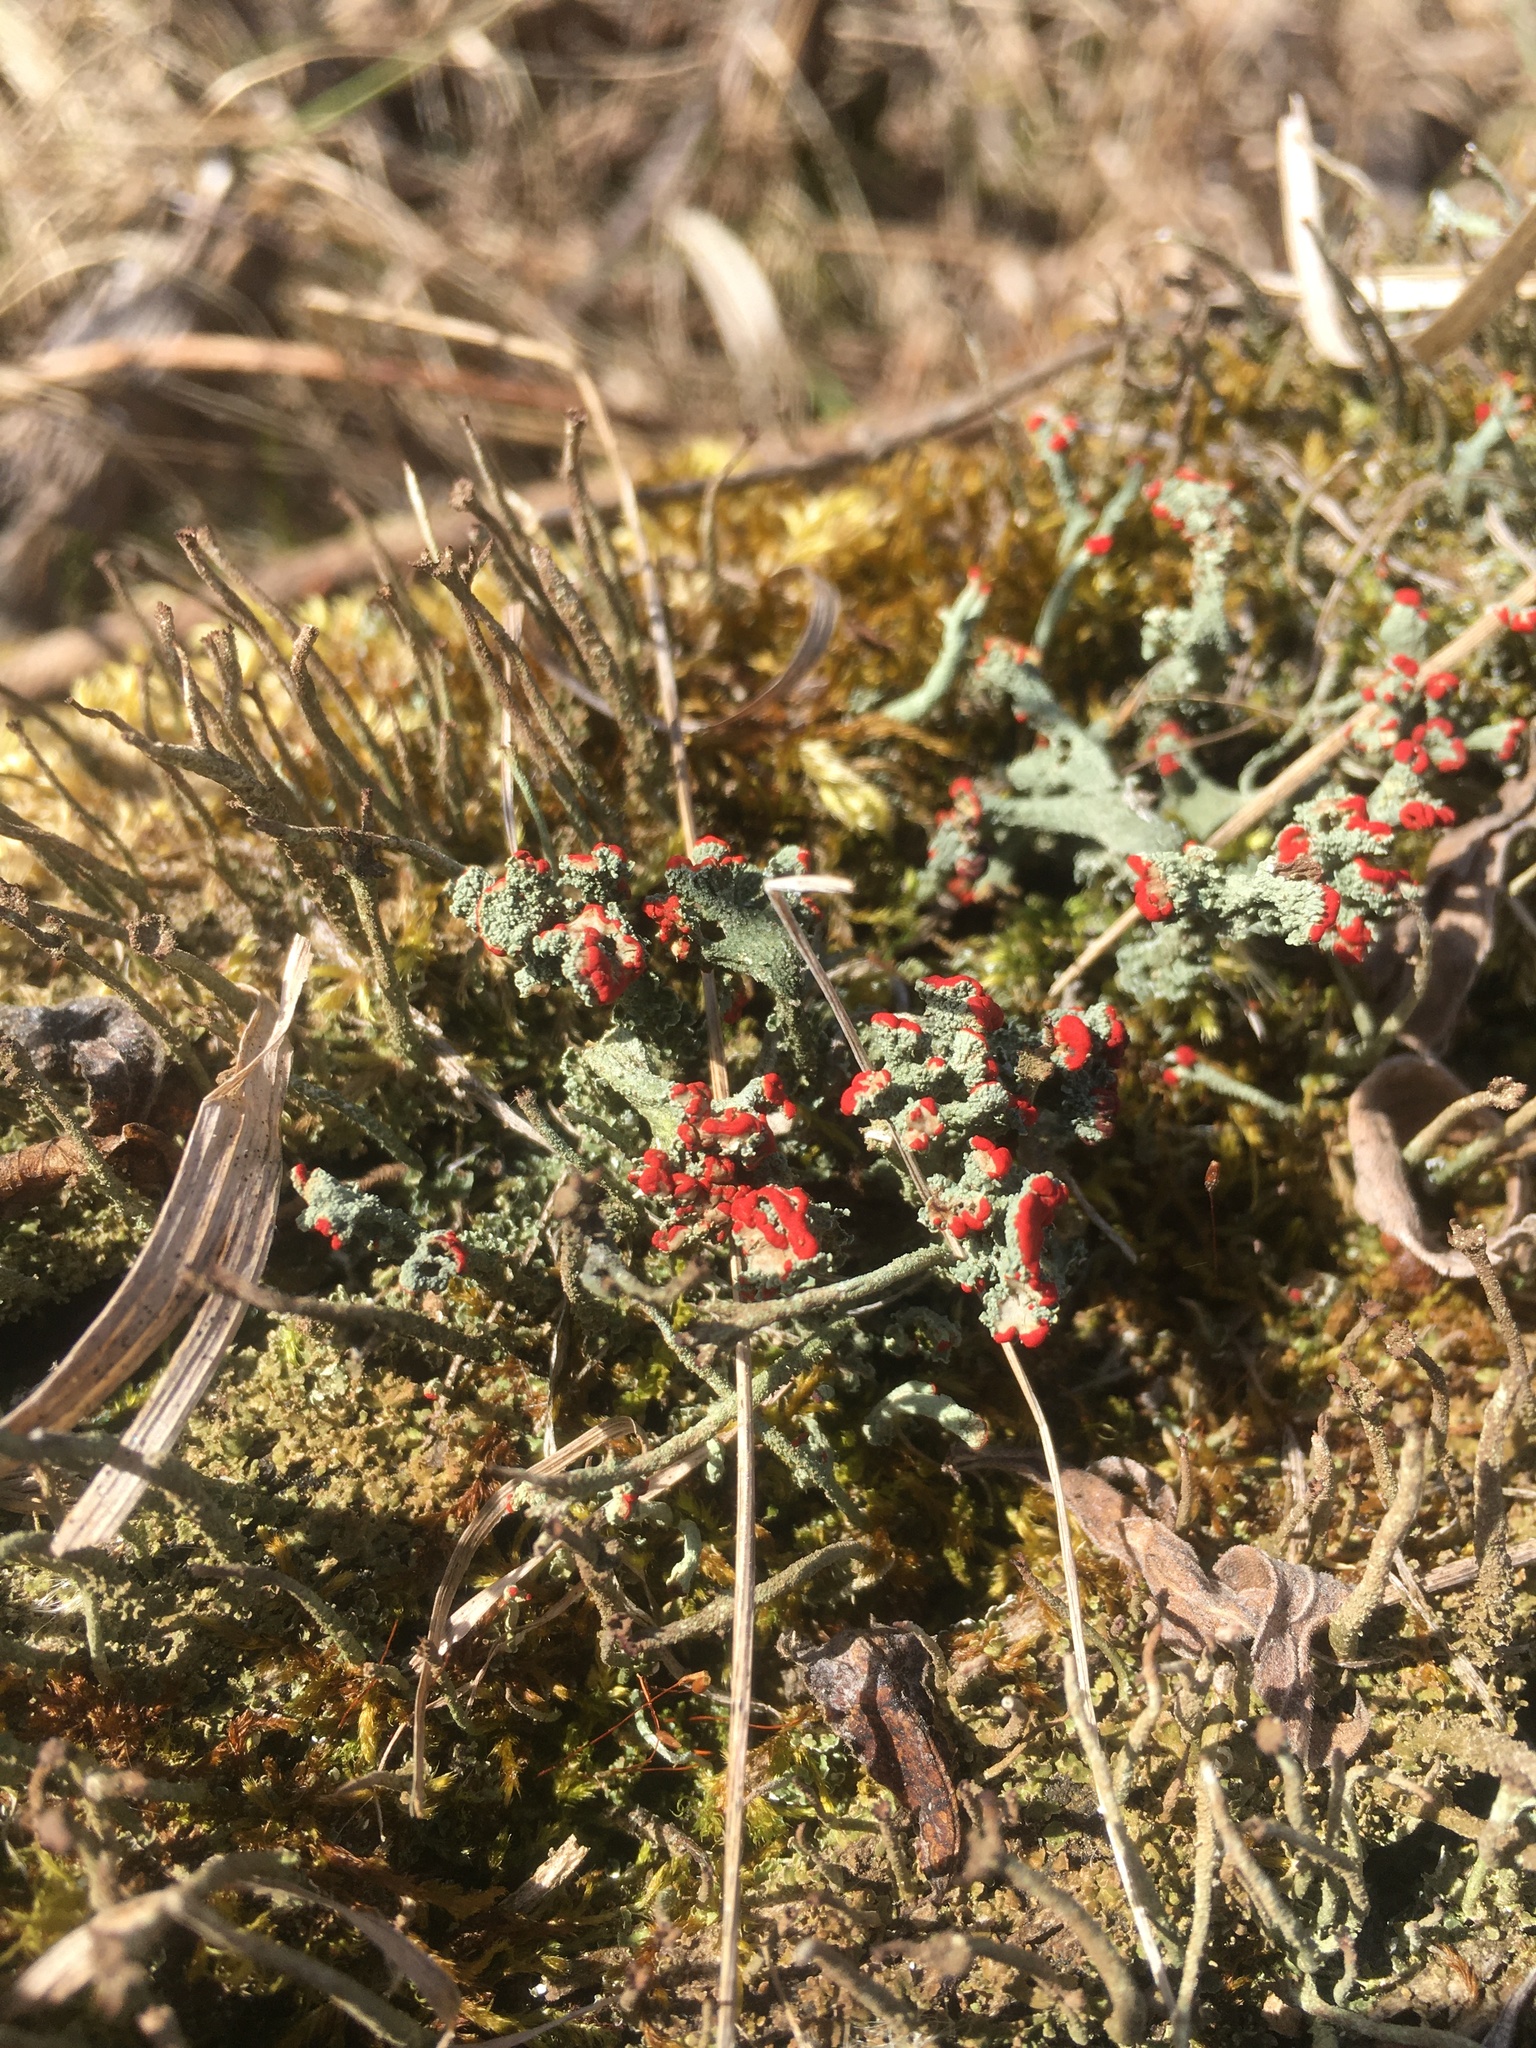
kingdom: Fungi
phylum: Ascomycota
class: Lecanoromycetes
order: Lecanorales
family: Cladoniaceae
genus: Cladonia
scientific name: Cladonia cristatella
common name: British soldier lichen
